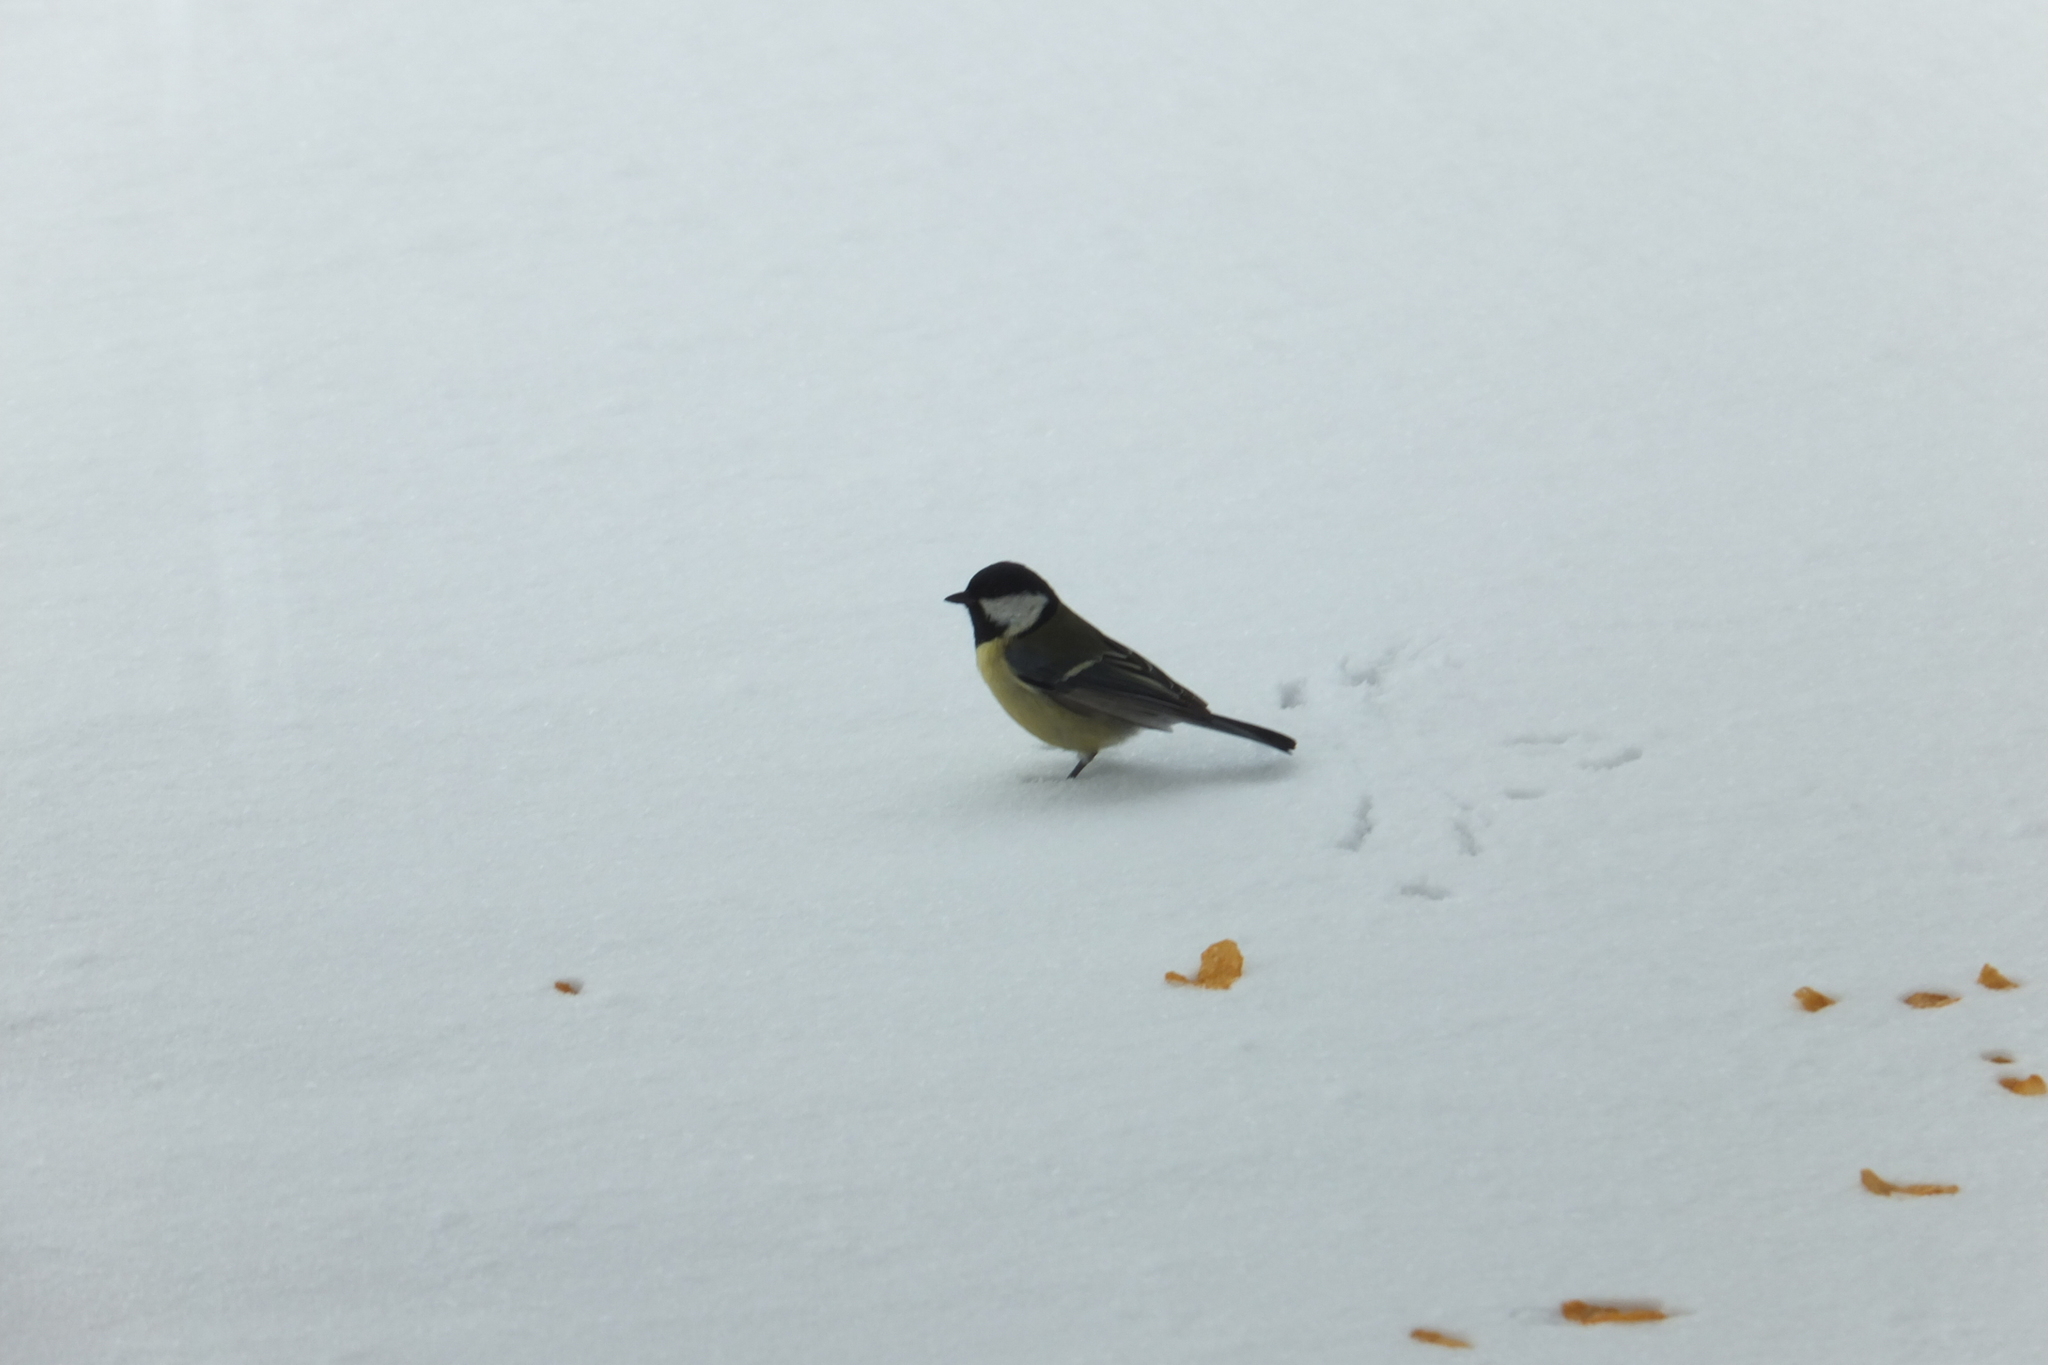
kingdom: Animalia
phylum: Chordata
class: Aves
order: Passeriformes
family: Paridae
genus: Parus
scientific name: Parus major
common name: Great tit
